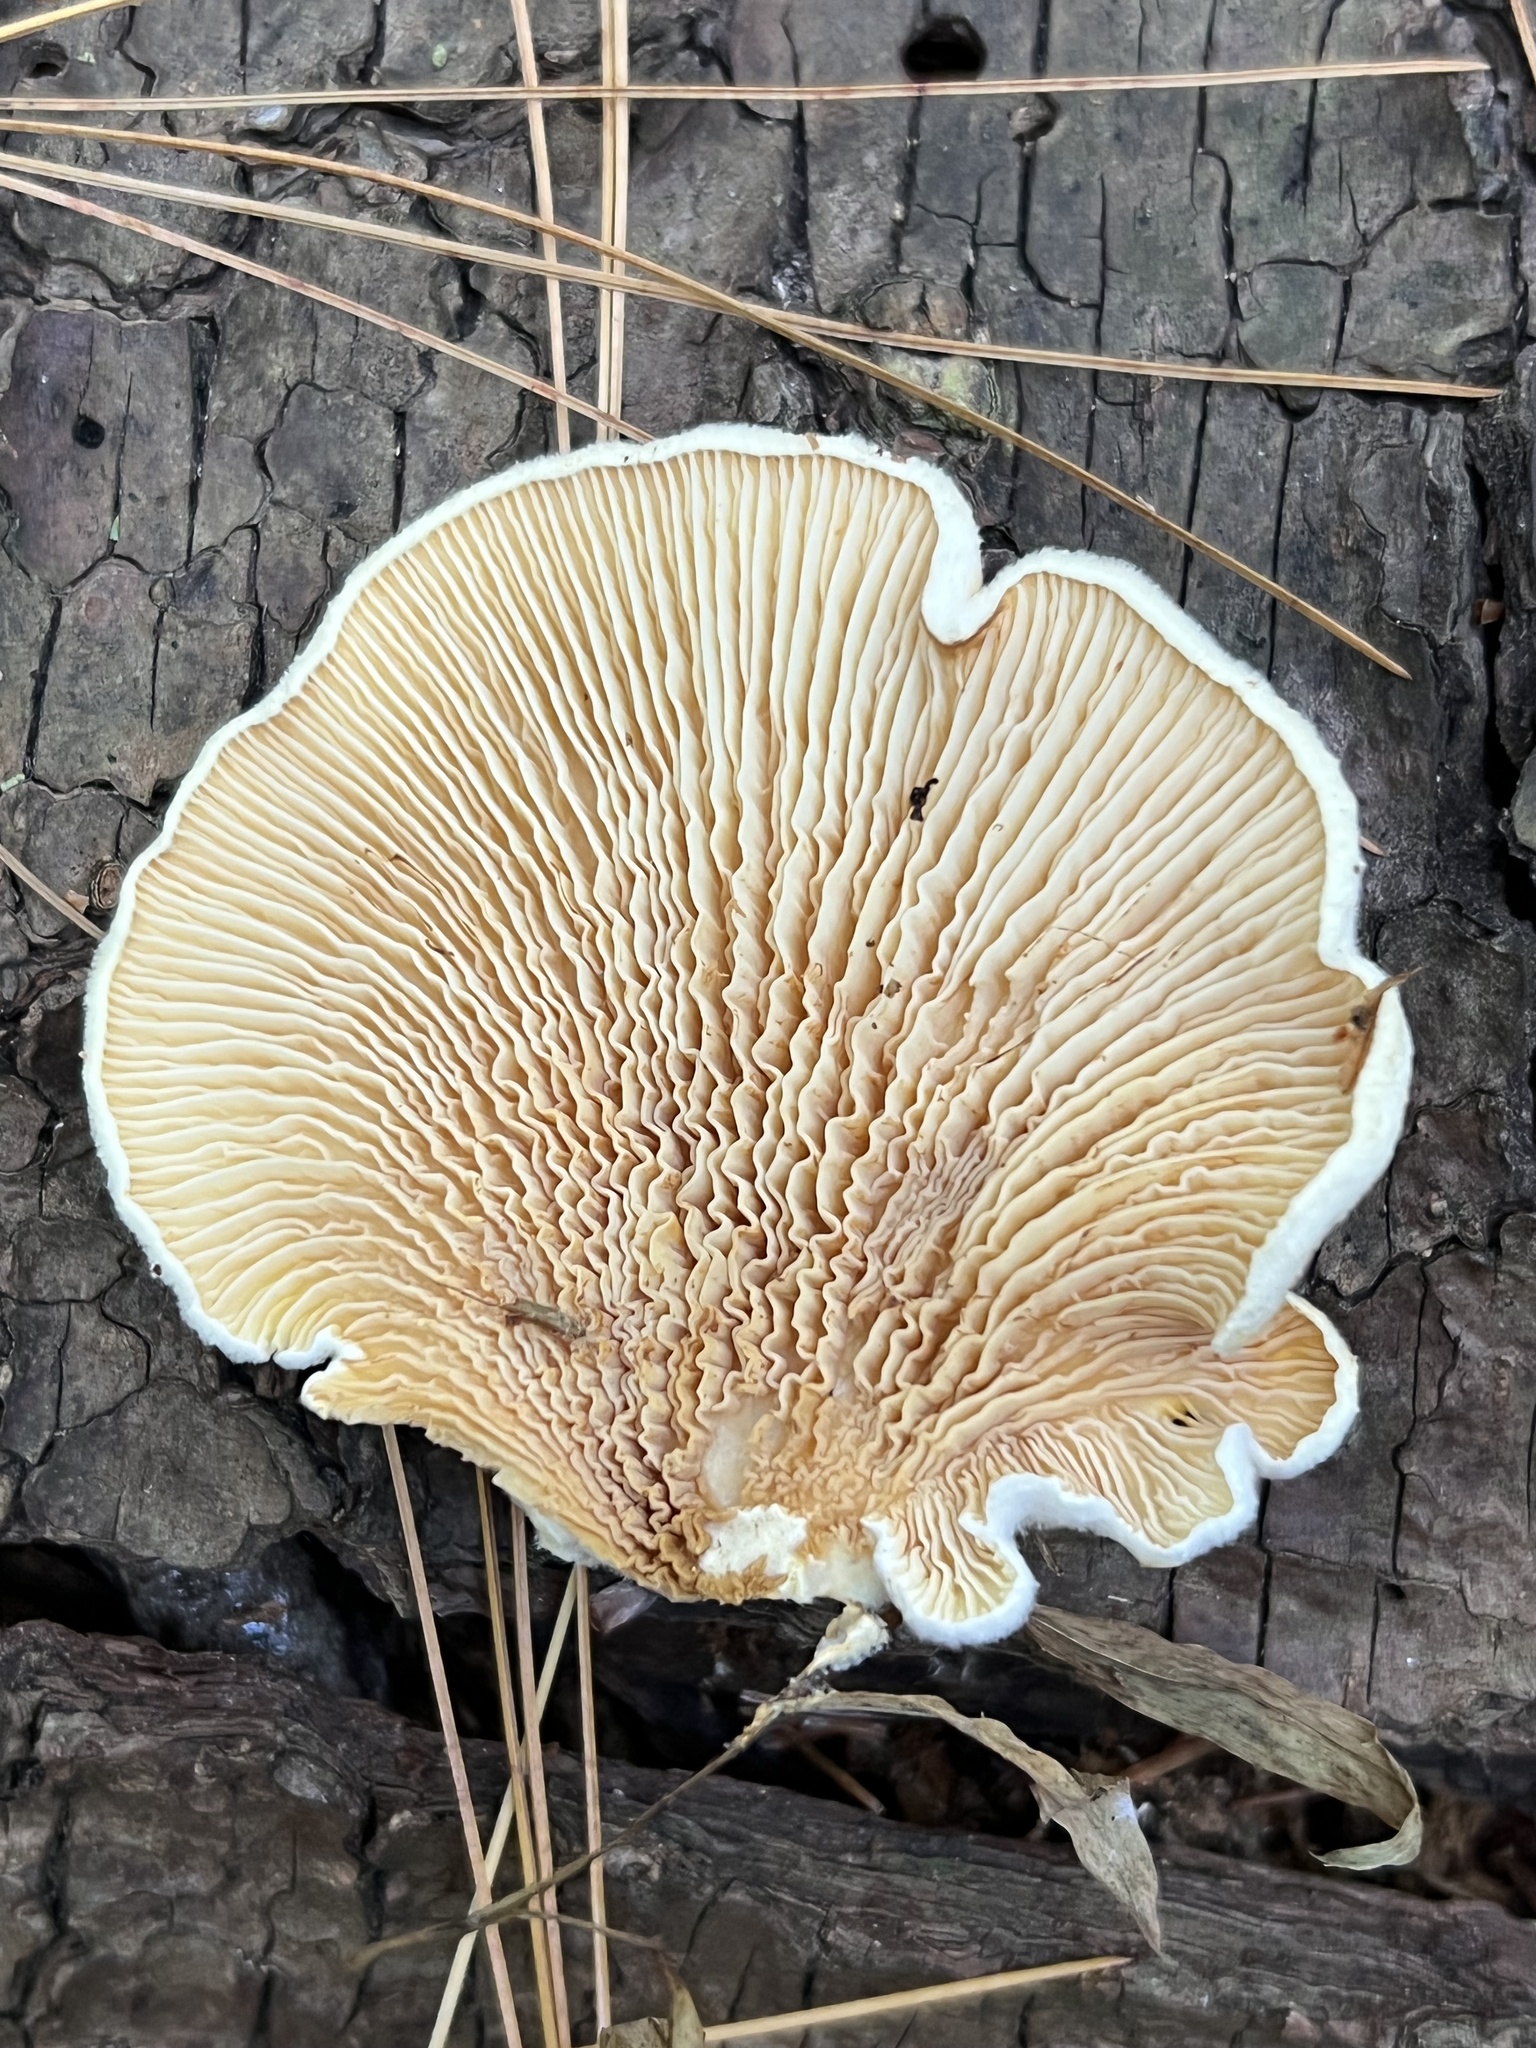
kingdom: Fungi
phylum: Basidiomycota
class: Agaricomycetes
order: Boletales
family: Tapinellaceae
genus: Tapinella
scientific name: Tapinella panuoides
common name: Oyster rollrim
